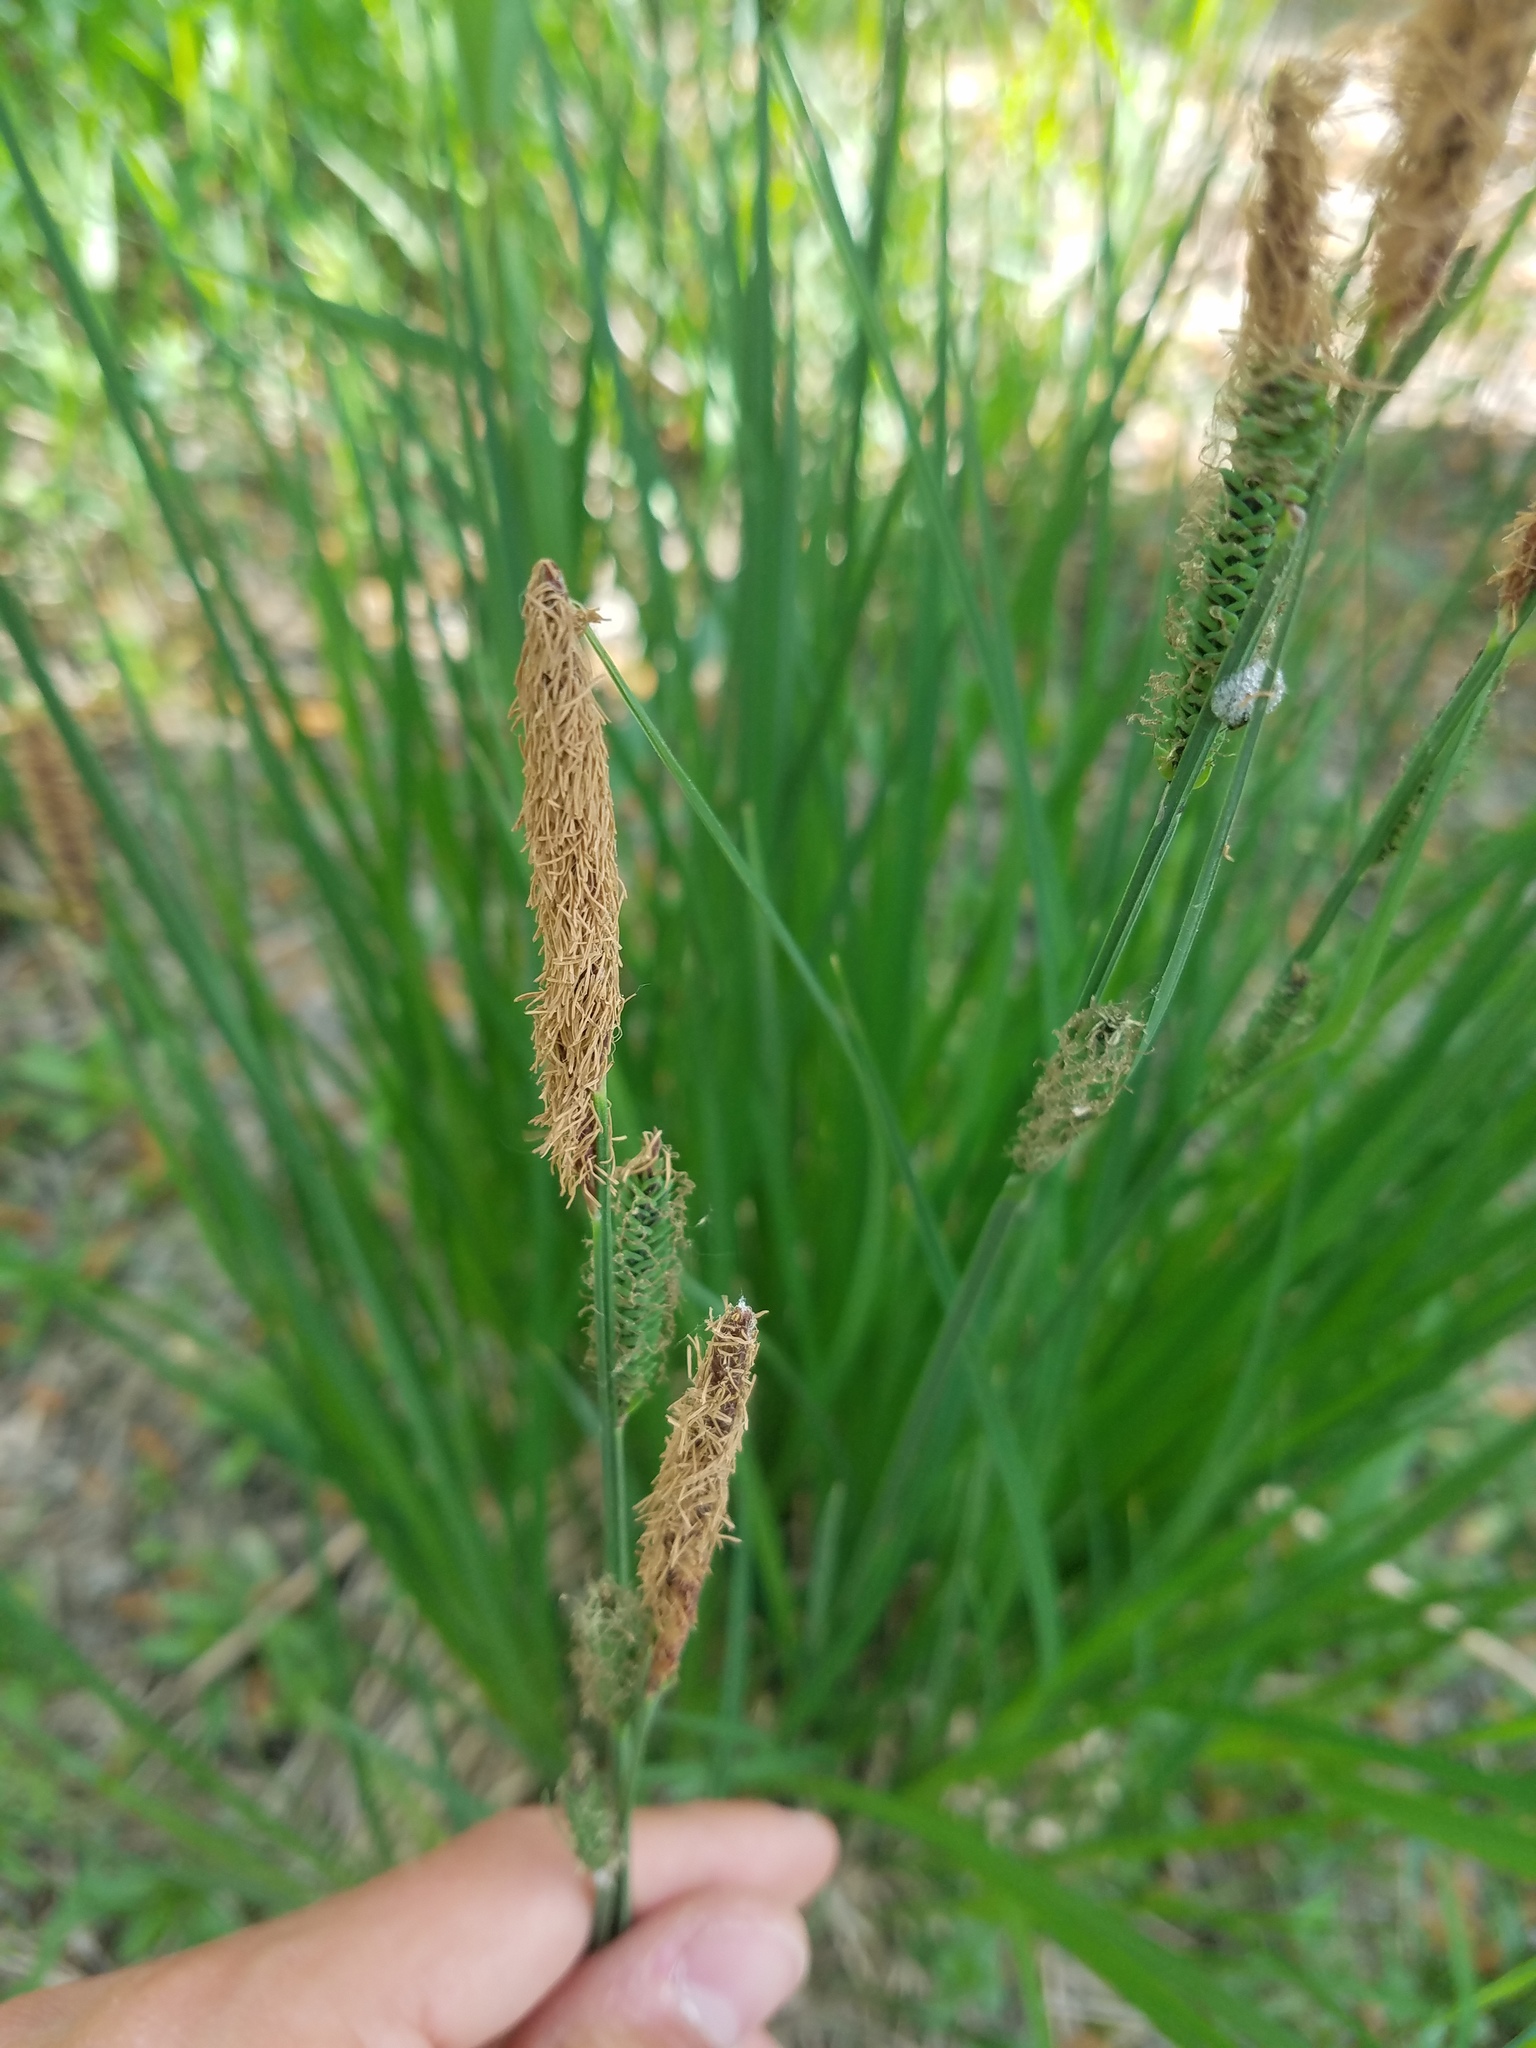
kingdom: Plantae
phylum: Tracheophyta
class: Liliopsida
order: Poales
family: Cyperaceae
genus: Carex
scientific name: Carex elata
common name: Tufted sedge
